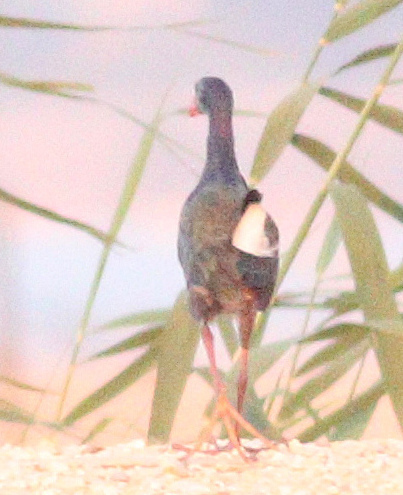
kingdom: Animalia
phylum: Chordata
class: Aves
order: Gruiformes
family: Rallidae
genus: Porphyrio
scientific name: Porphyrio porphyrio
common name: Purple swamphen
